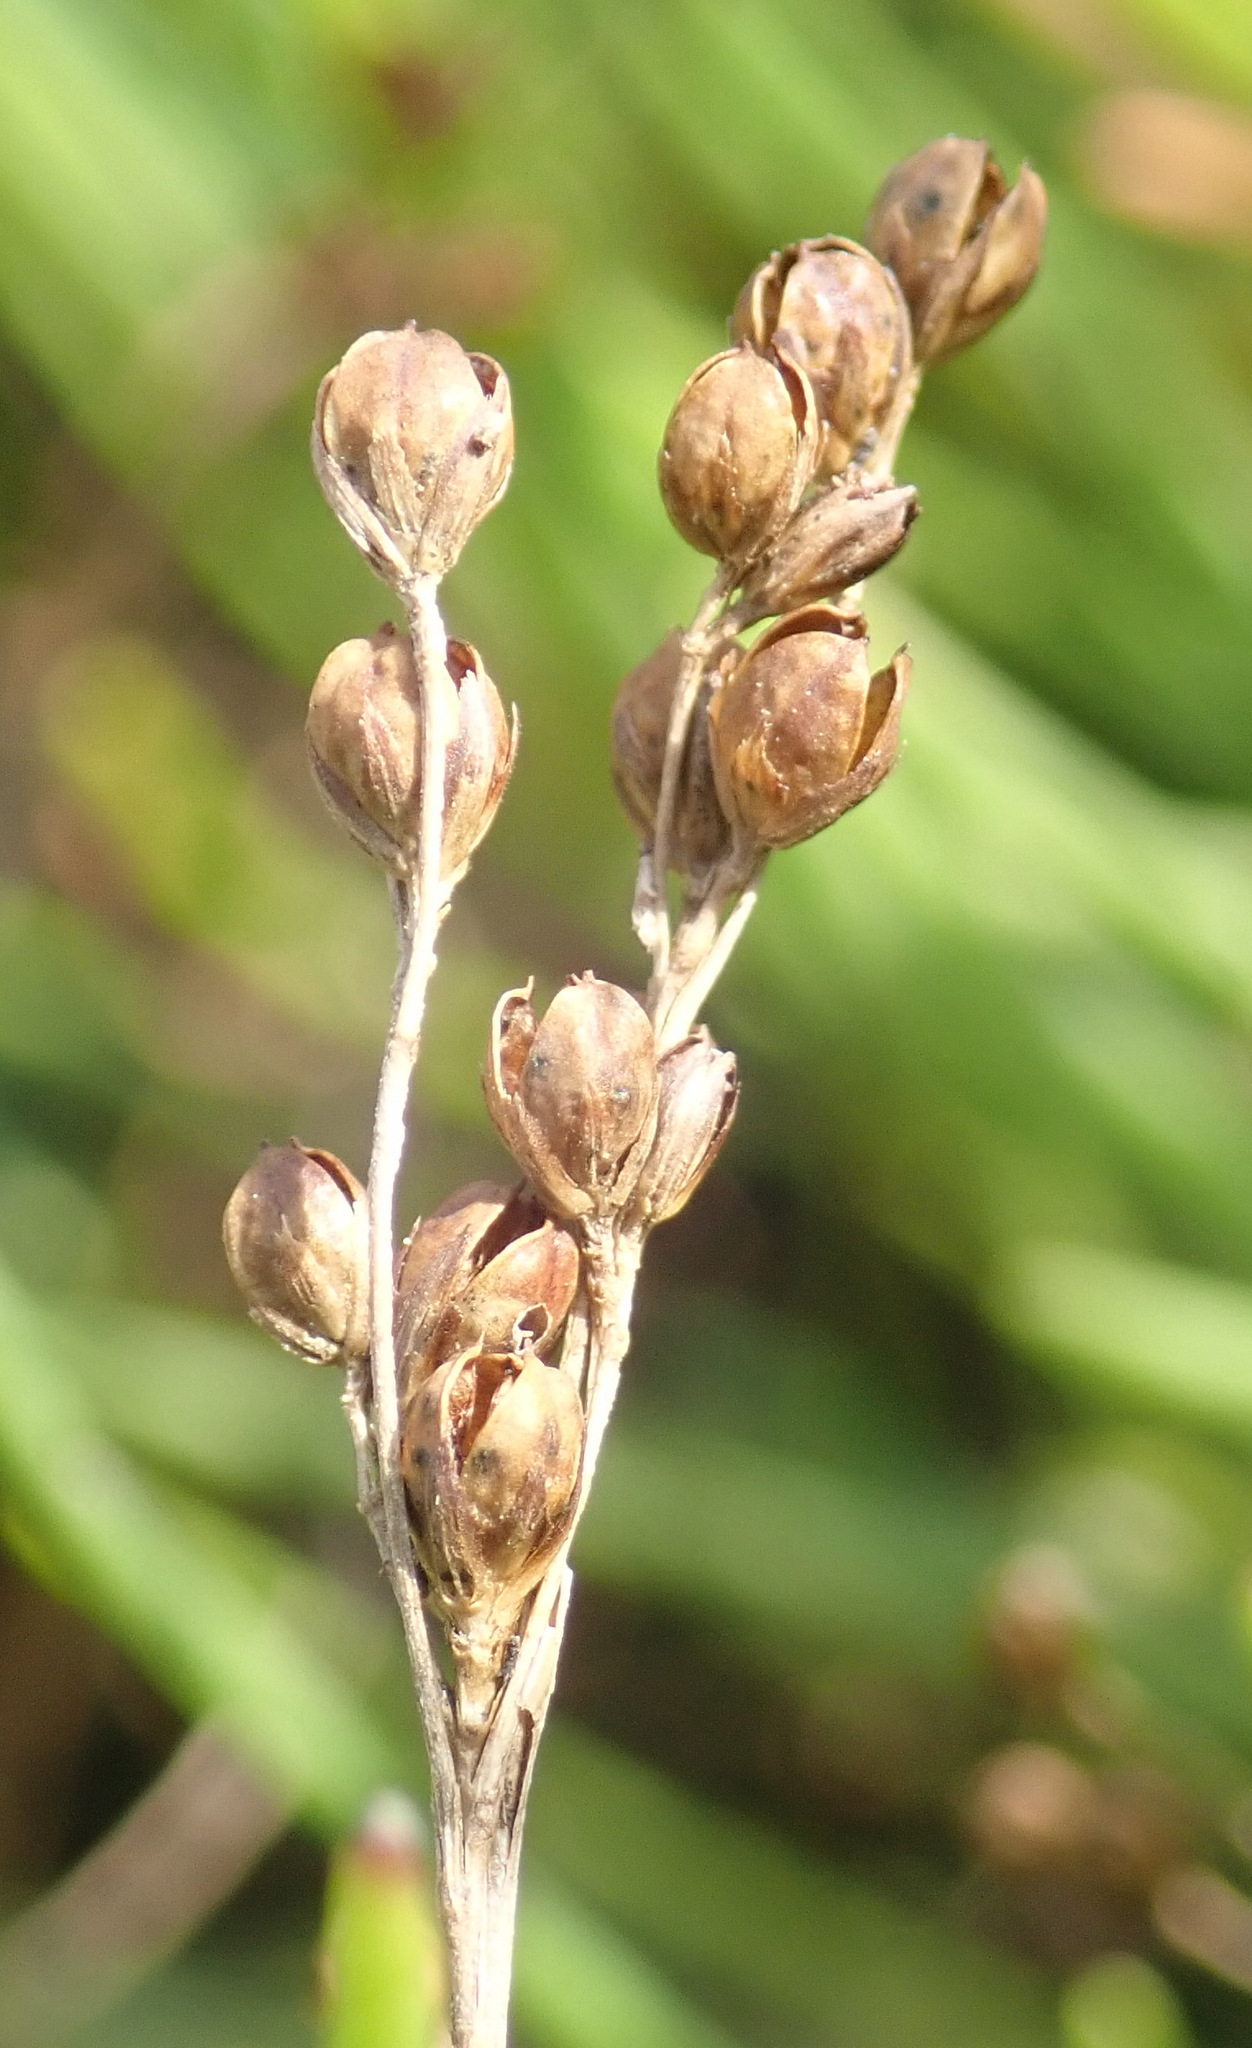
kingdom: Plantae
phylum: Tracheophyta
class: Liliopsida
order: Poales
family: Juncaceae
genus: Juncus
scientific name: Juncus compressus
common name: Round-fruited rush
